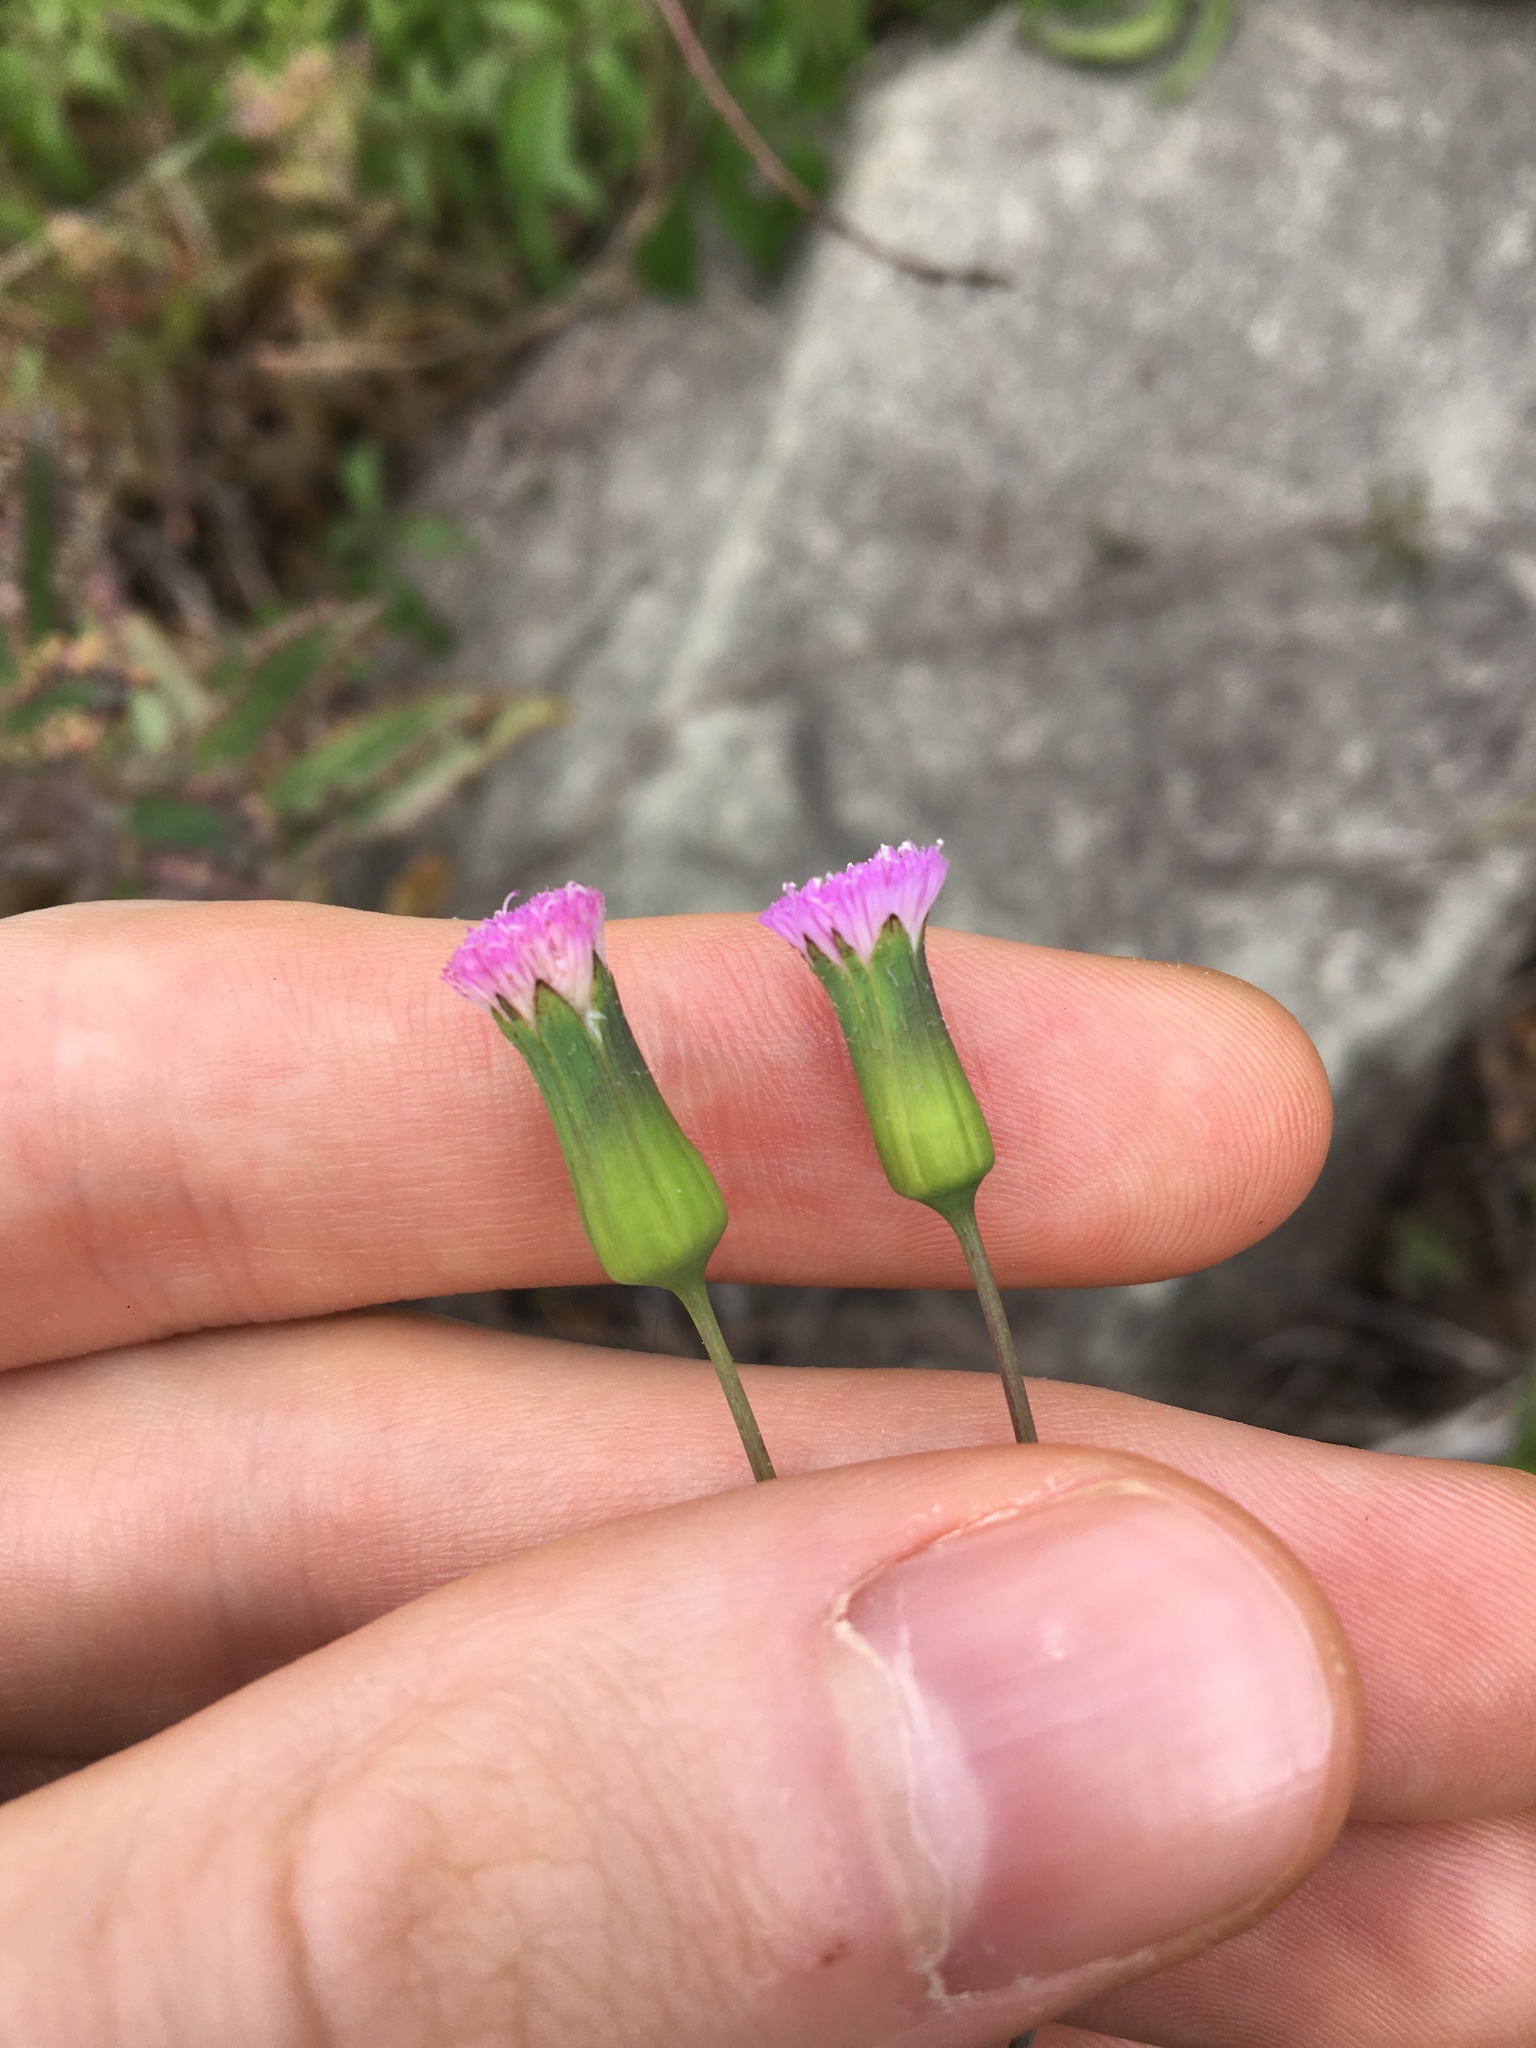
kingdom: Plantae
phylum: Tracheophyta
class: Magnoliopsida
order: Asterales
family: Asteraceae
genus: Emilia
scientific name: Emilia javanica
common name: Tassel-flower
